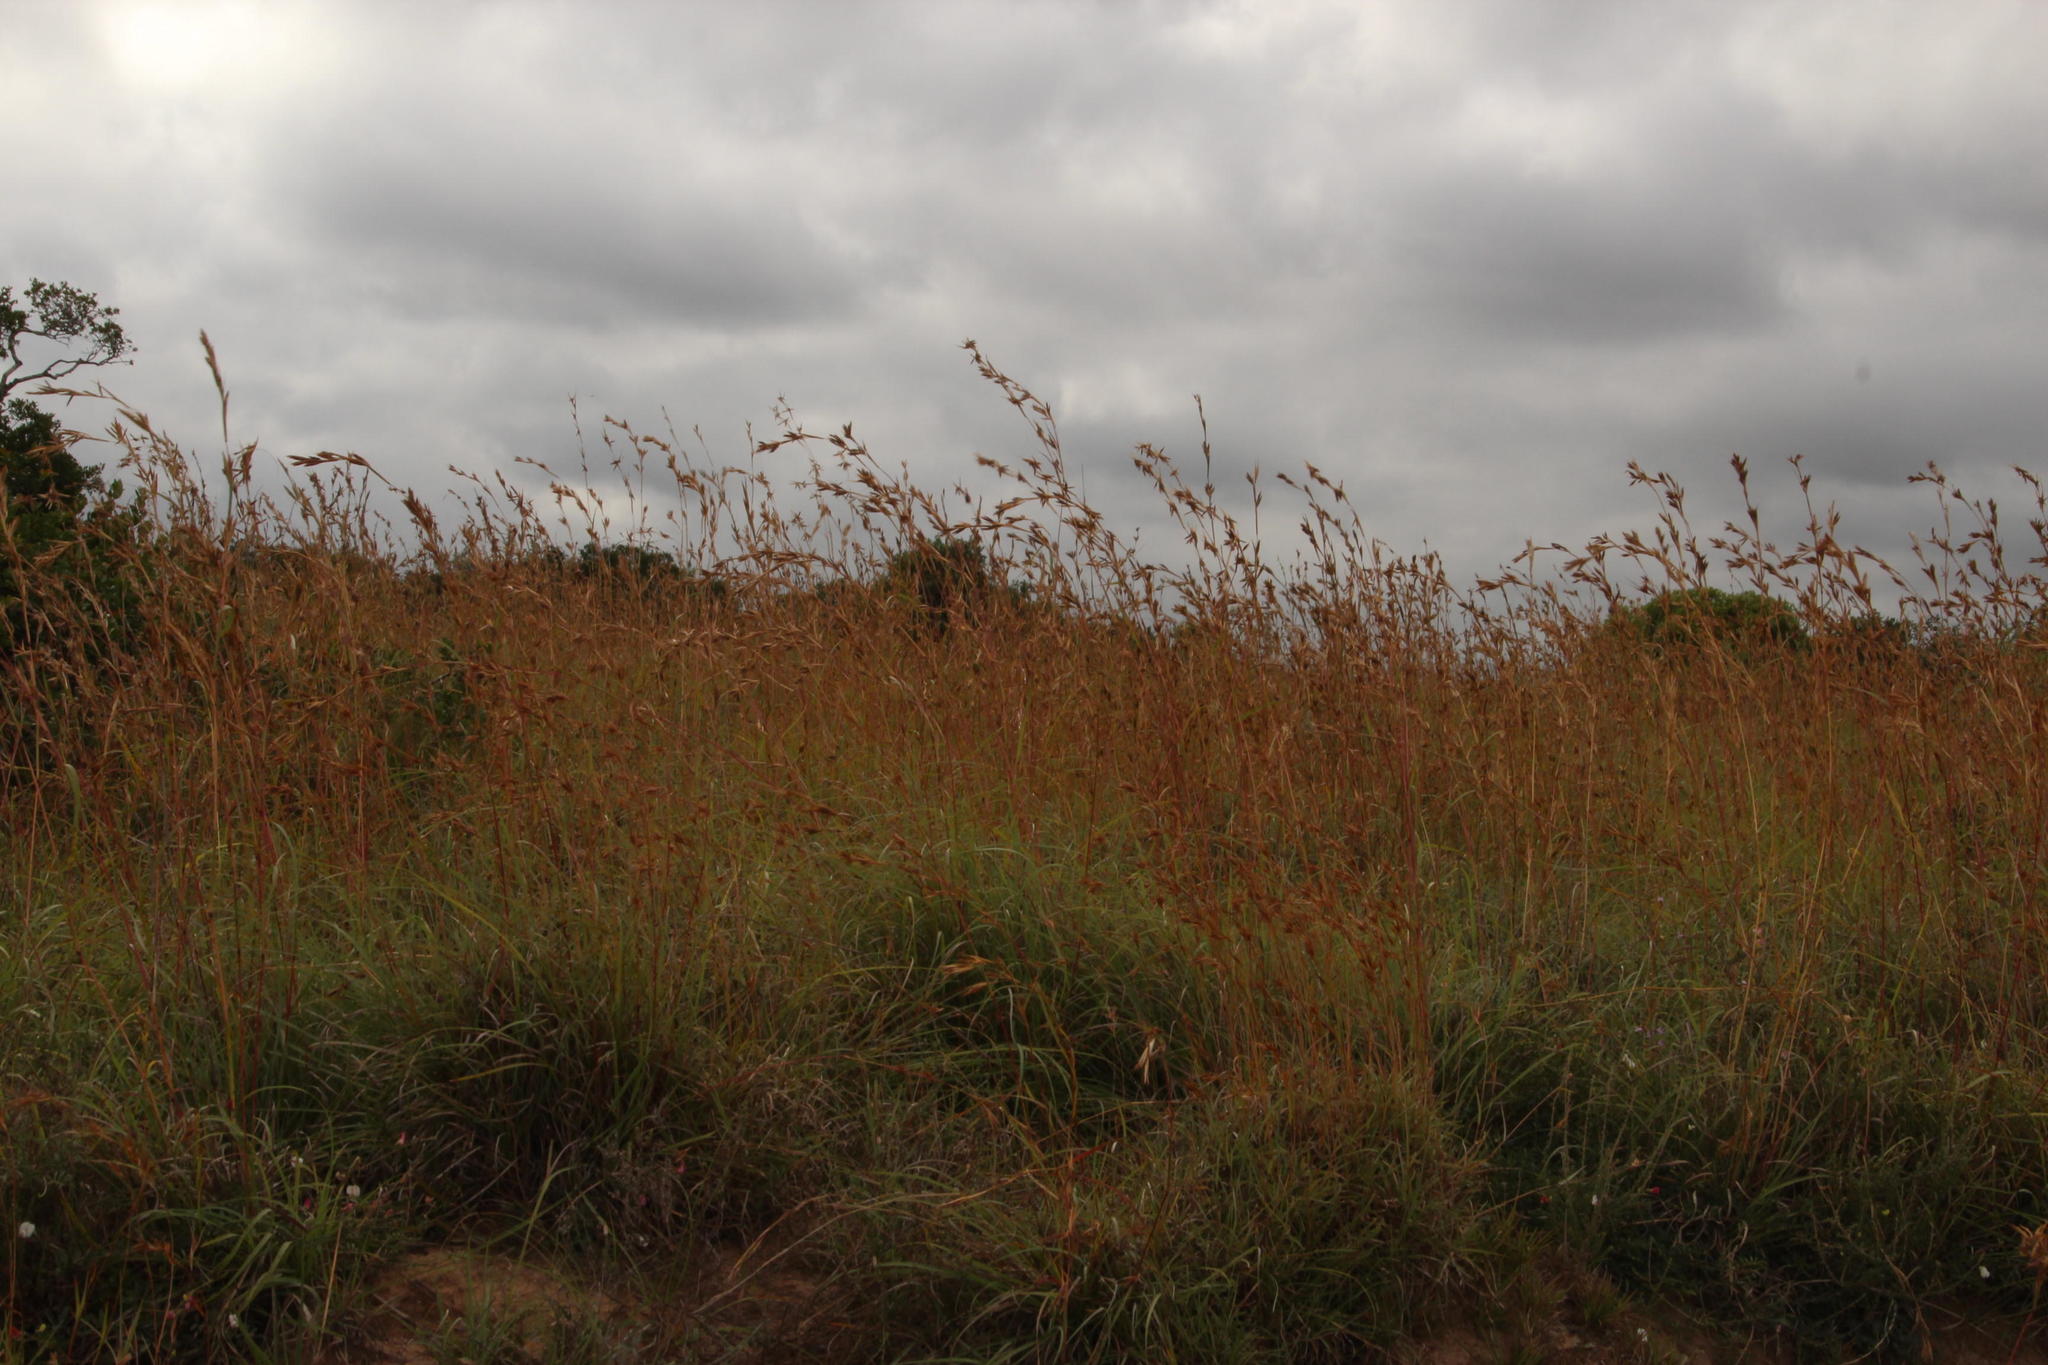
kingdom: Plantae
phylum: Tracheophyta
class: Liliopsida
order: Poales
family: Poaceae
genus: Themeda
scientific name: Themeda triandra
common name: Kangaroo grass
